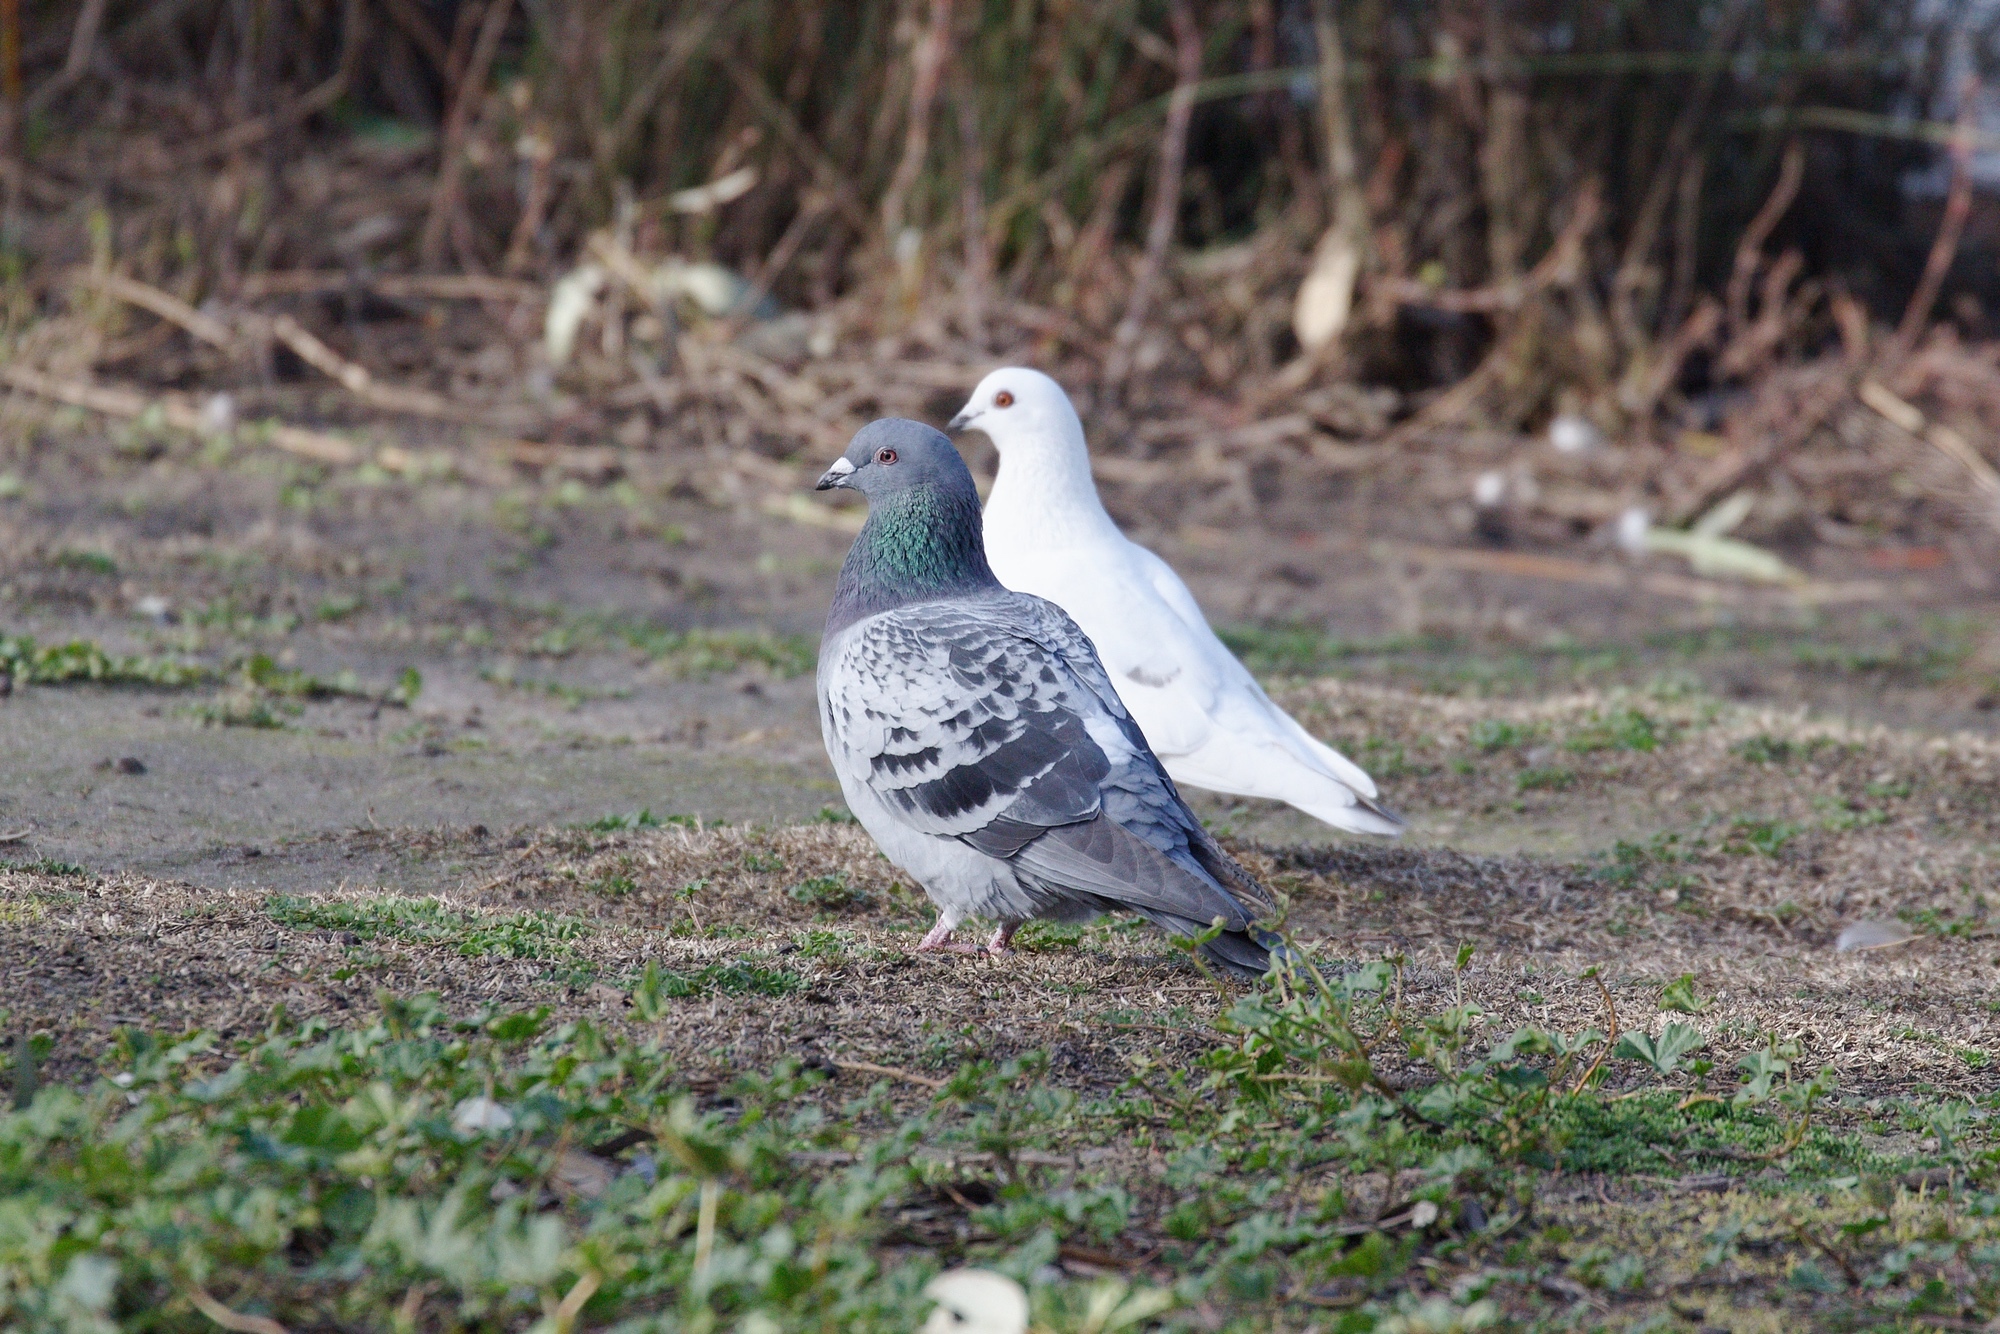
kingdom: Animalia
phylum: Chordata
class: Aves
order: Columbiformes
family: Columbidae
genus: Columba
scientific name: Columba livia
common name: Rock pigeon
